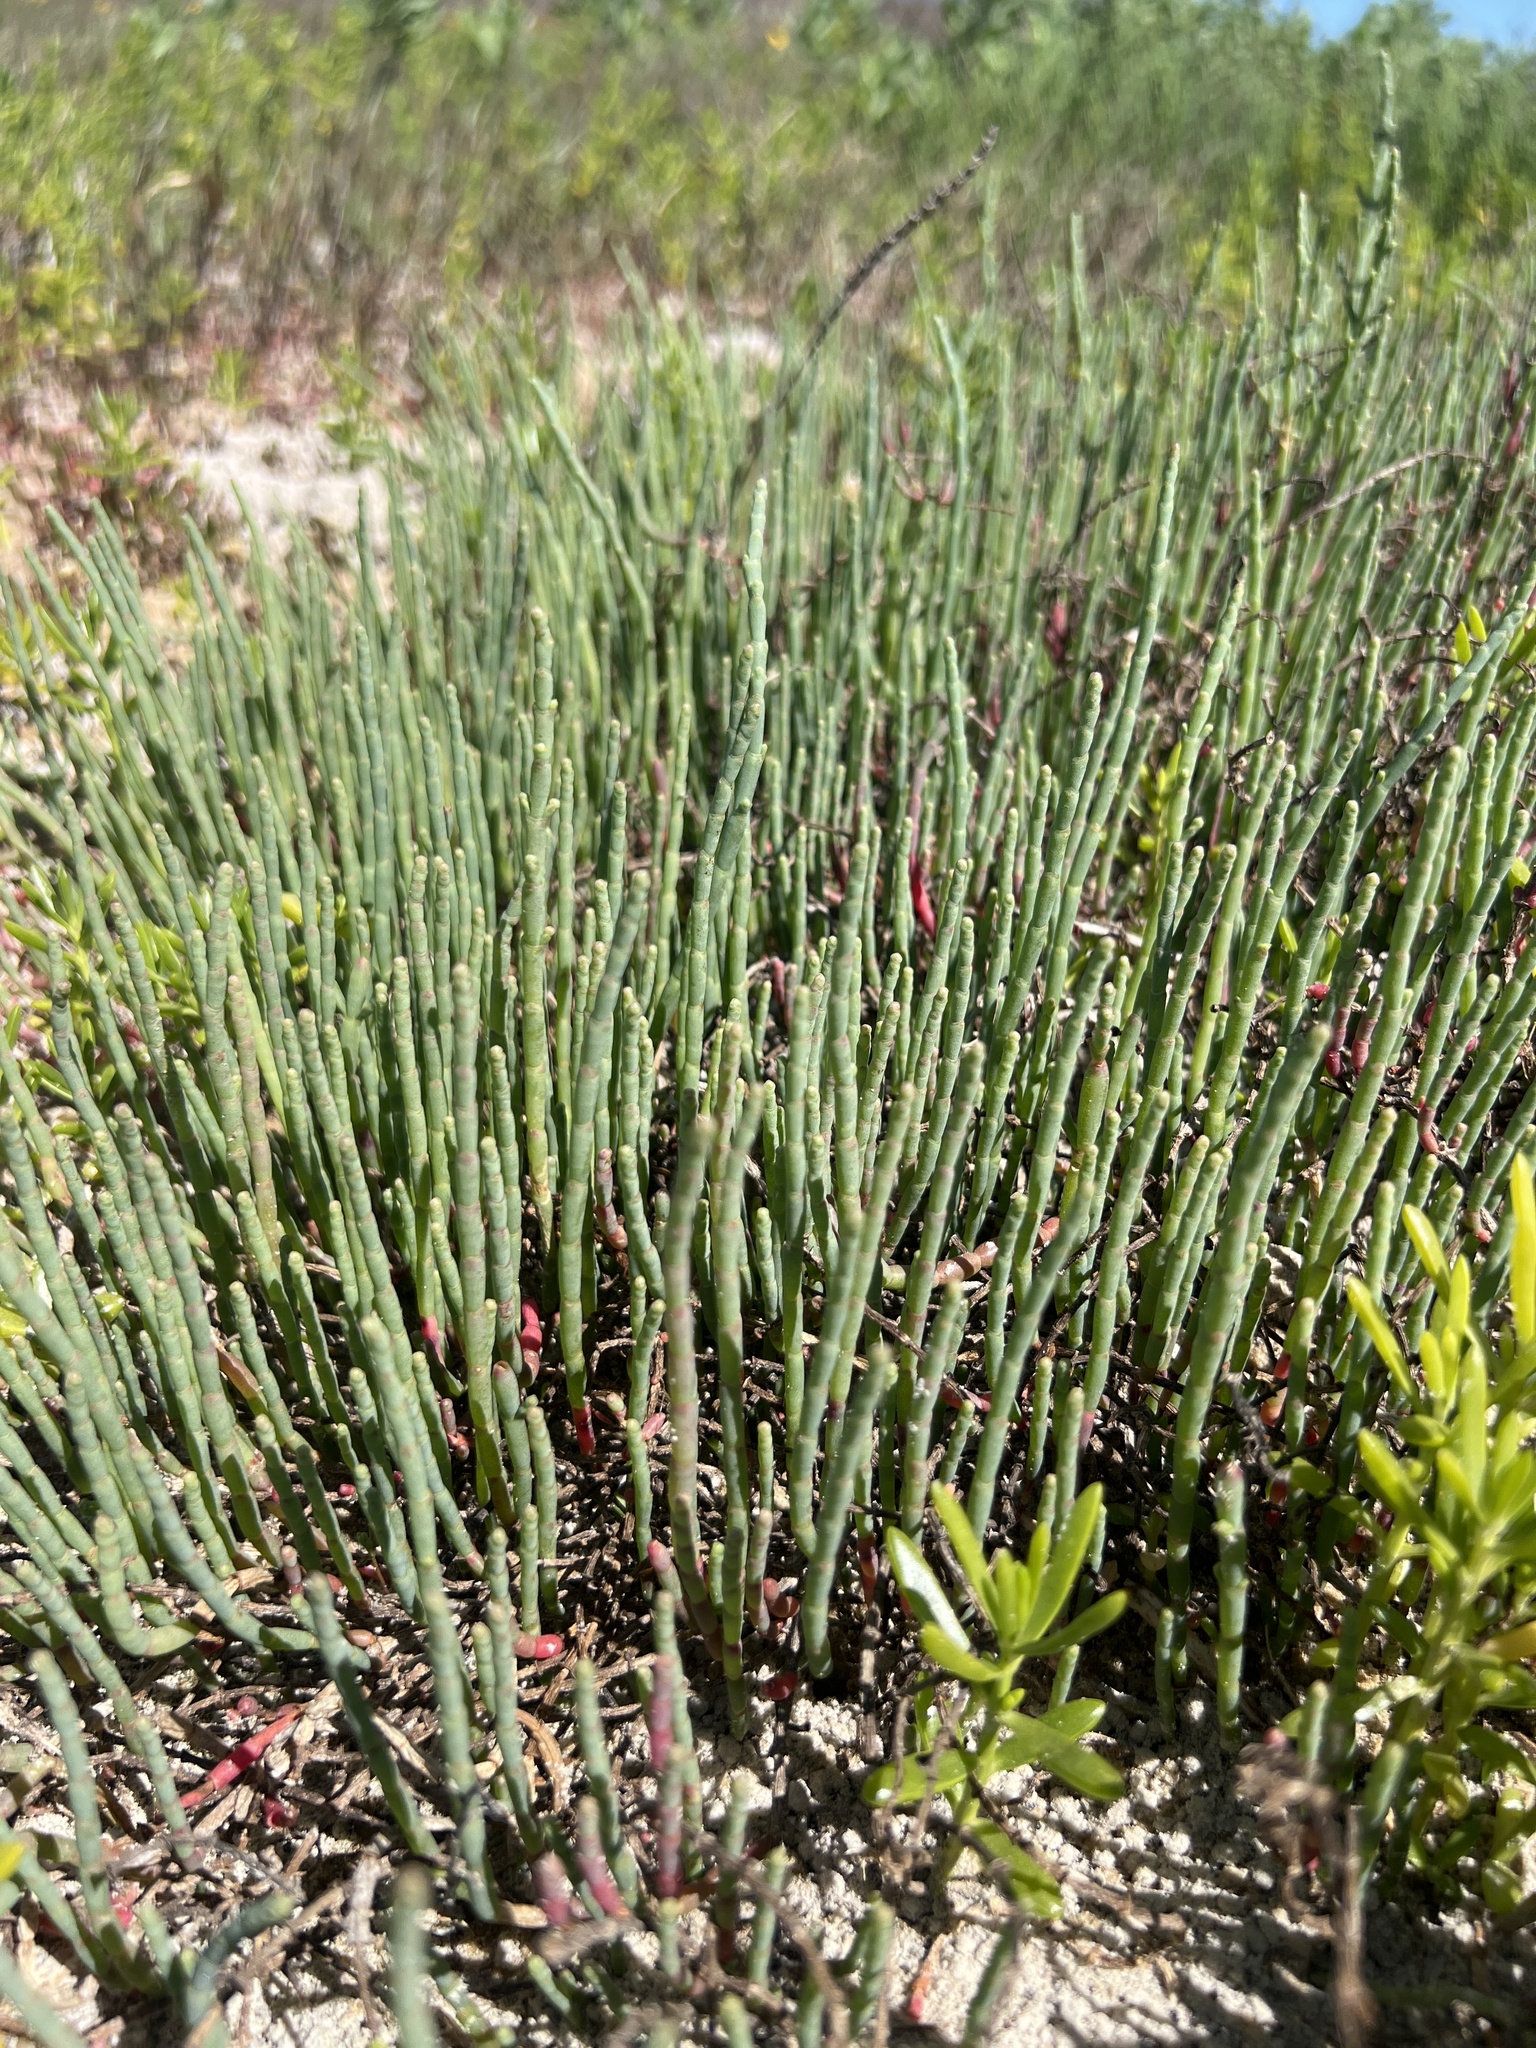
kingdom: Plantae
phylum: Tracheophyta
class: Magnoliopsida
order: Caryophyllales
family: Amaranthaceae
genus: Salicornia
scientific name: Salicornia virginica
